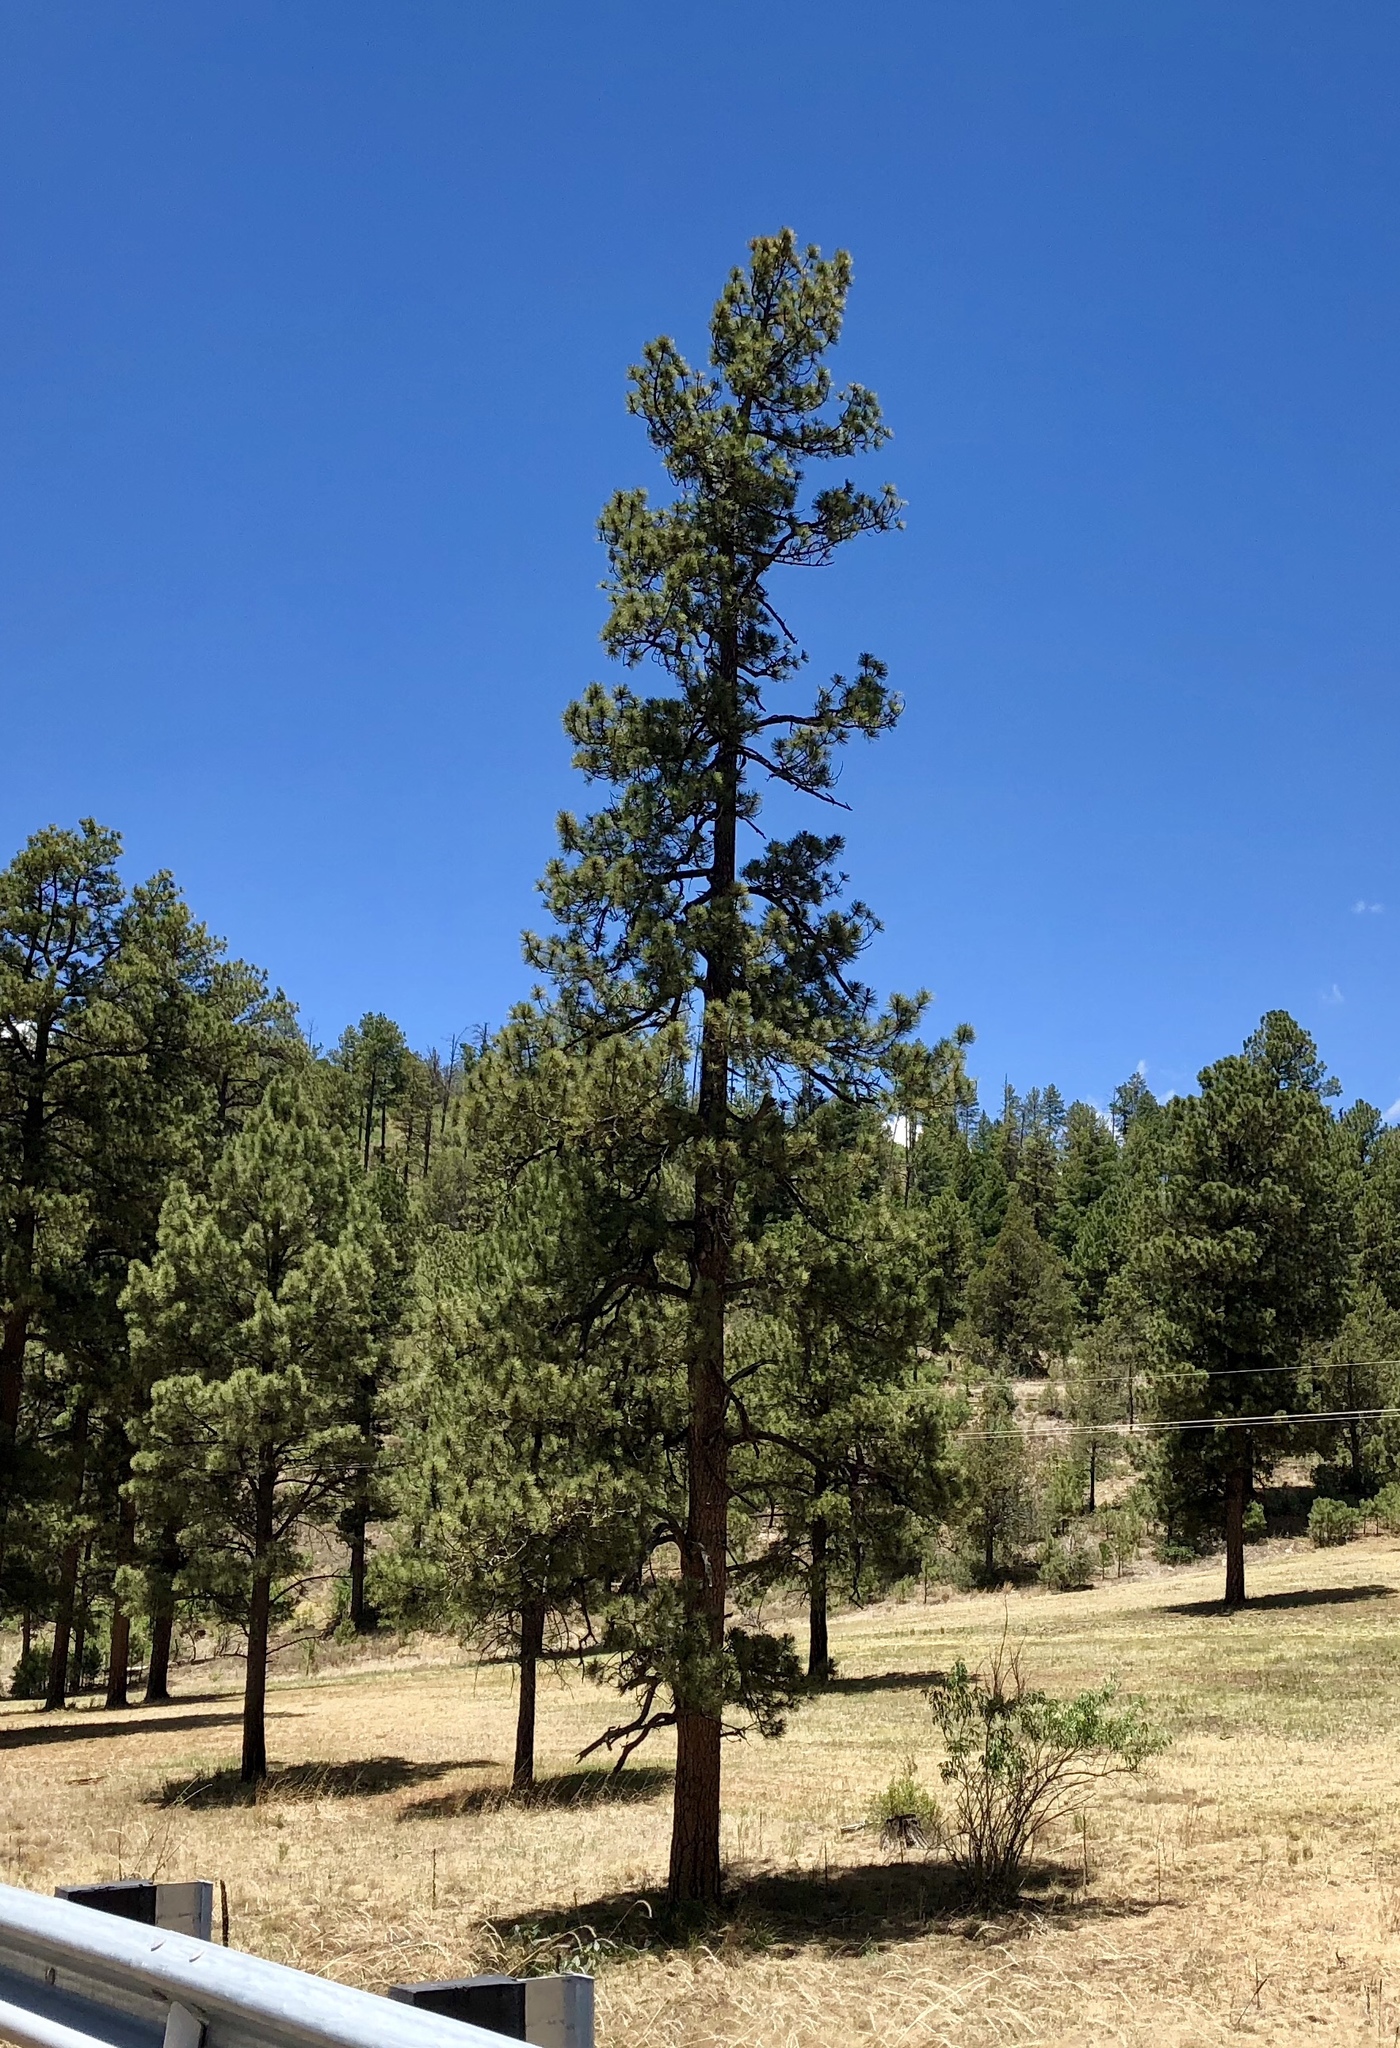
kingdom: Plantae
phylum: Tracheophyta
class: Pinopsida
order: Pinales
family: Pinaceae
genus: Pinus
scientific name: Pinus ponderosa
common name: Western yellow-pine
